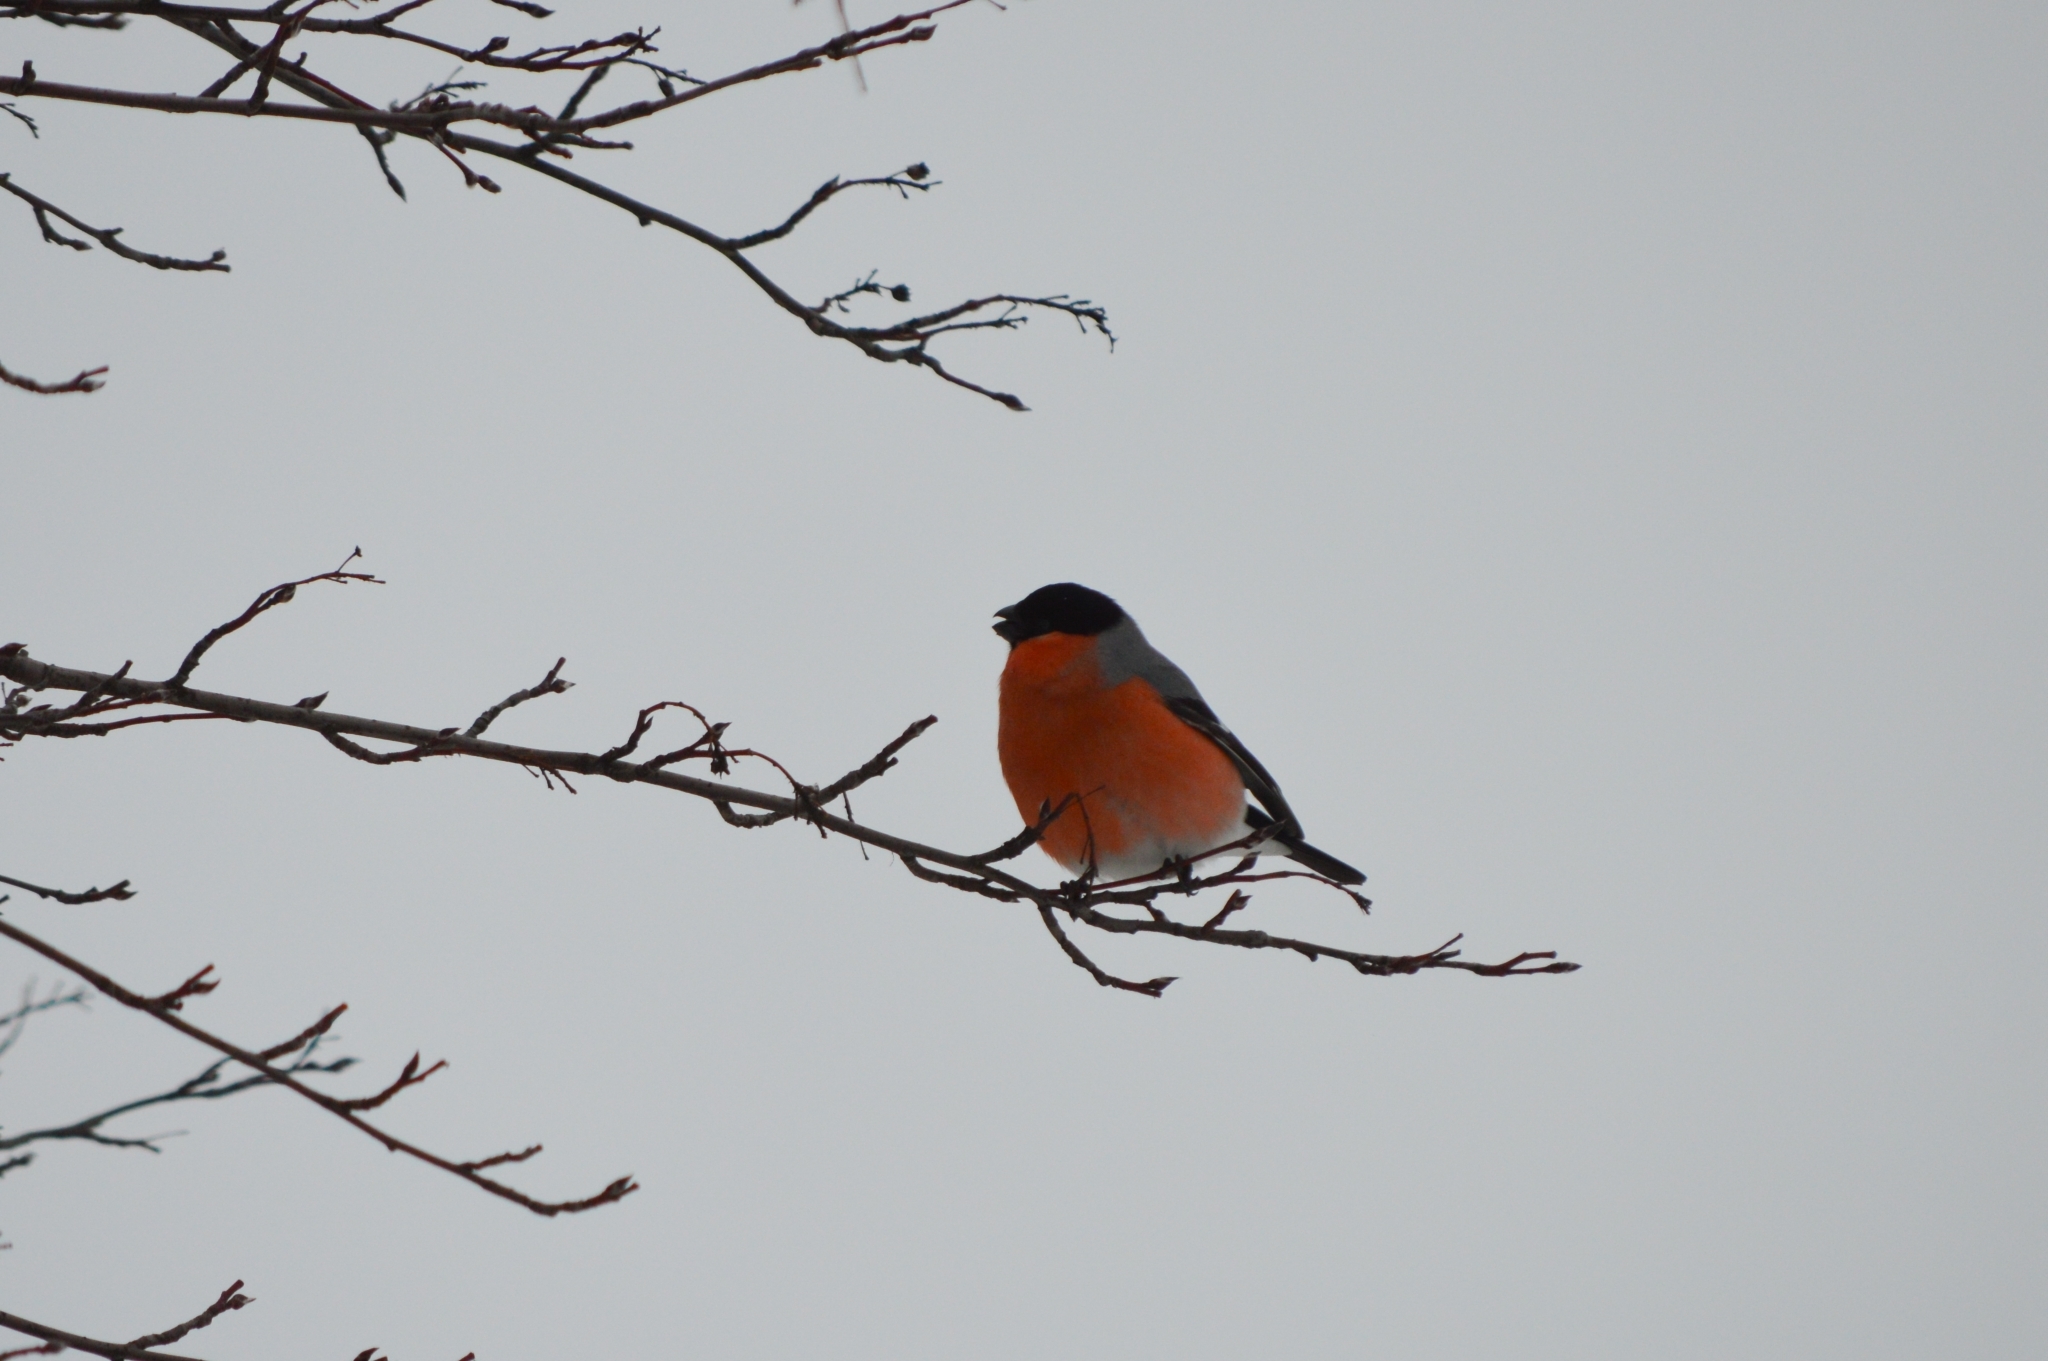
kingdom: Animalia
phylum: Chordata
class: Aves
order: Passeriformes
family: Fringillidae
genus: Pyrrhula
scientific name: Pyrrhula pyrrhula
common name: Eurasian bullfinch
